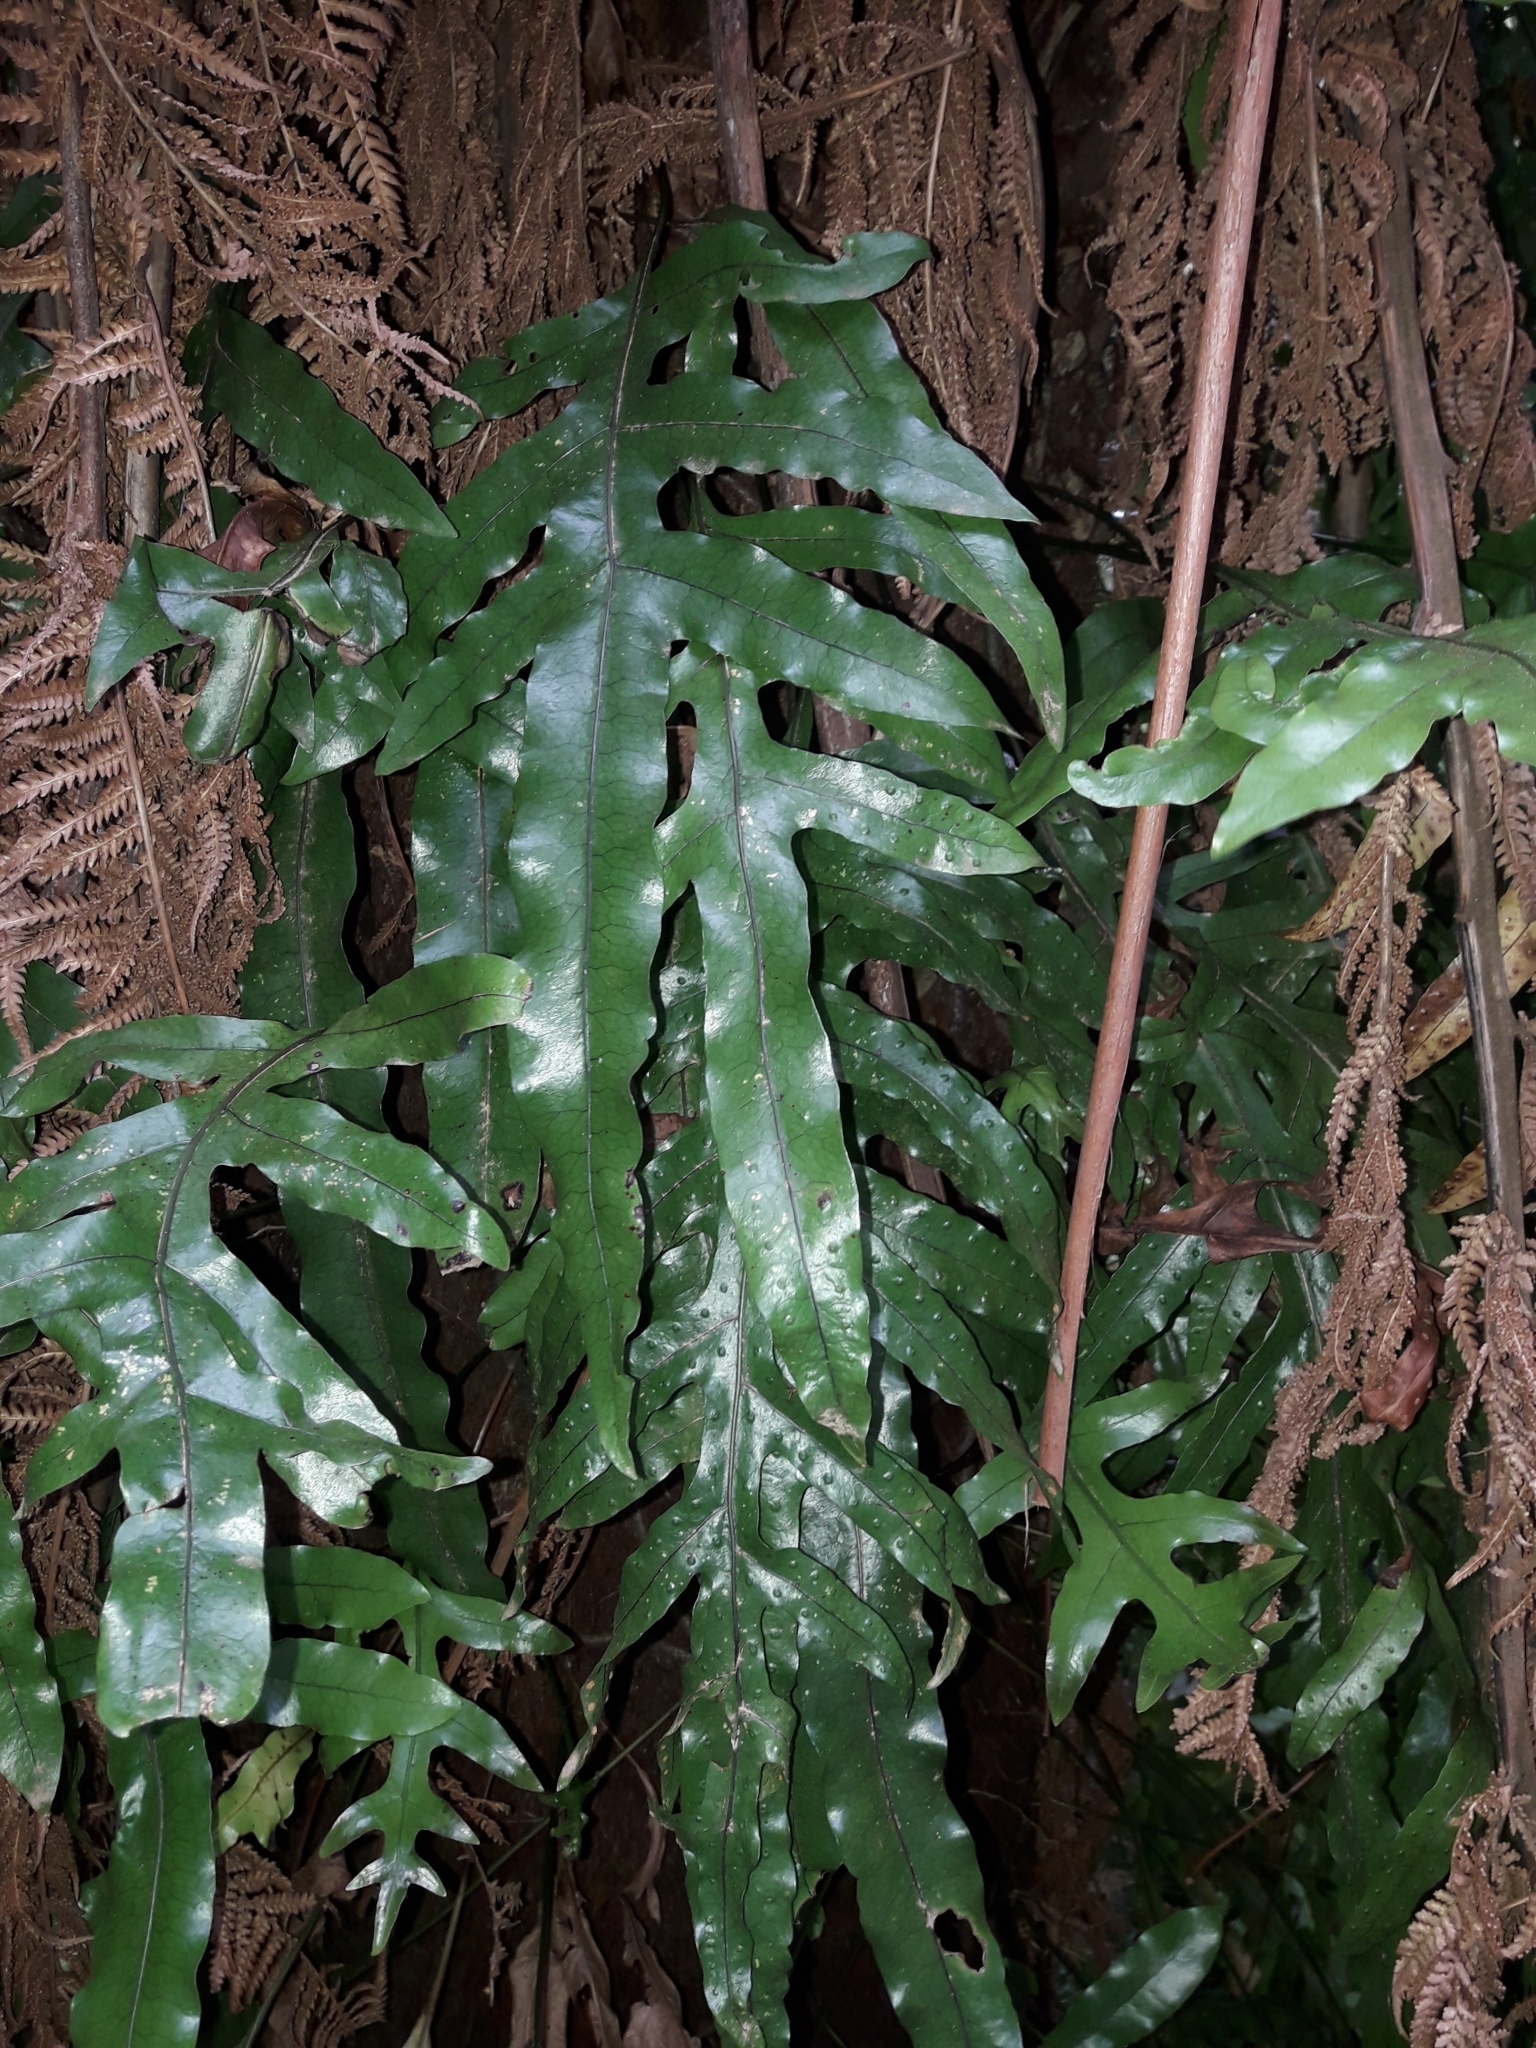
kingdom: Plantae
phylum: Tracheophyta
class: Polypodiopsida
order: Polypodiales
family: Polypodiaceae
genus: Lecanopteris
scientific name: Lecanopteris pustulata
